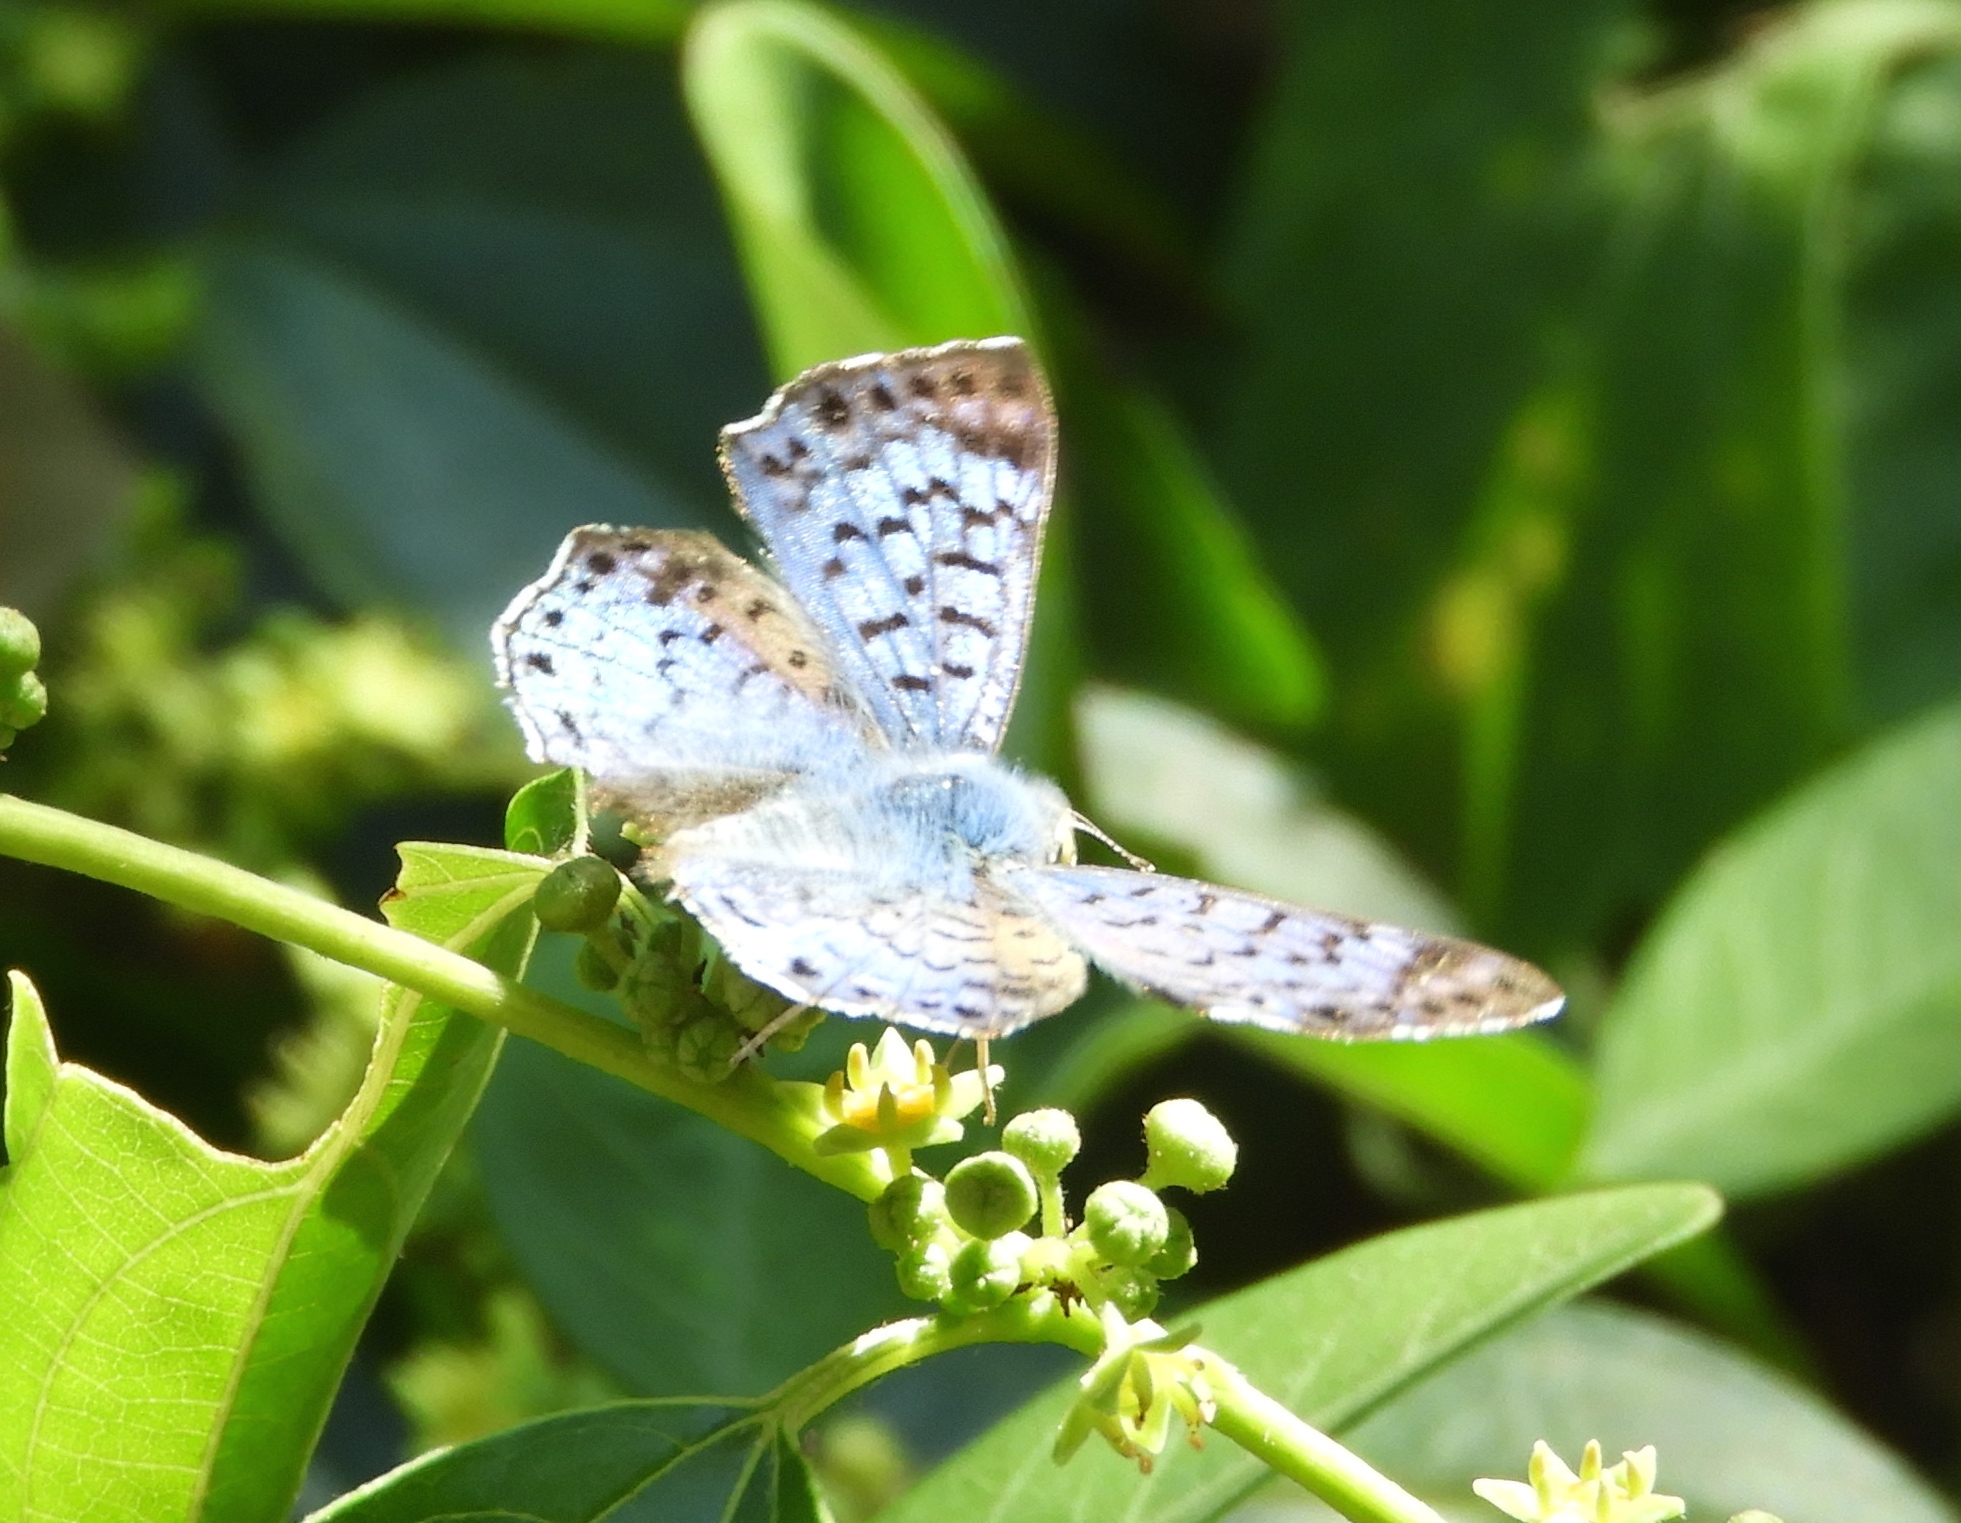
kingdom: Animalia
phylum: Arthropoda
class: Insecta
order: Lepidoptera
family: Riodinidae
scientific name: Riodinidae
